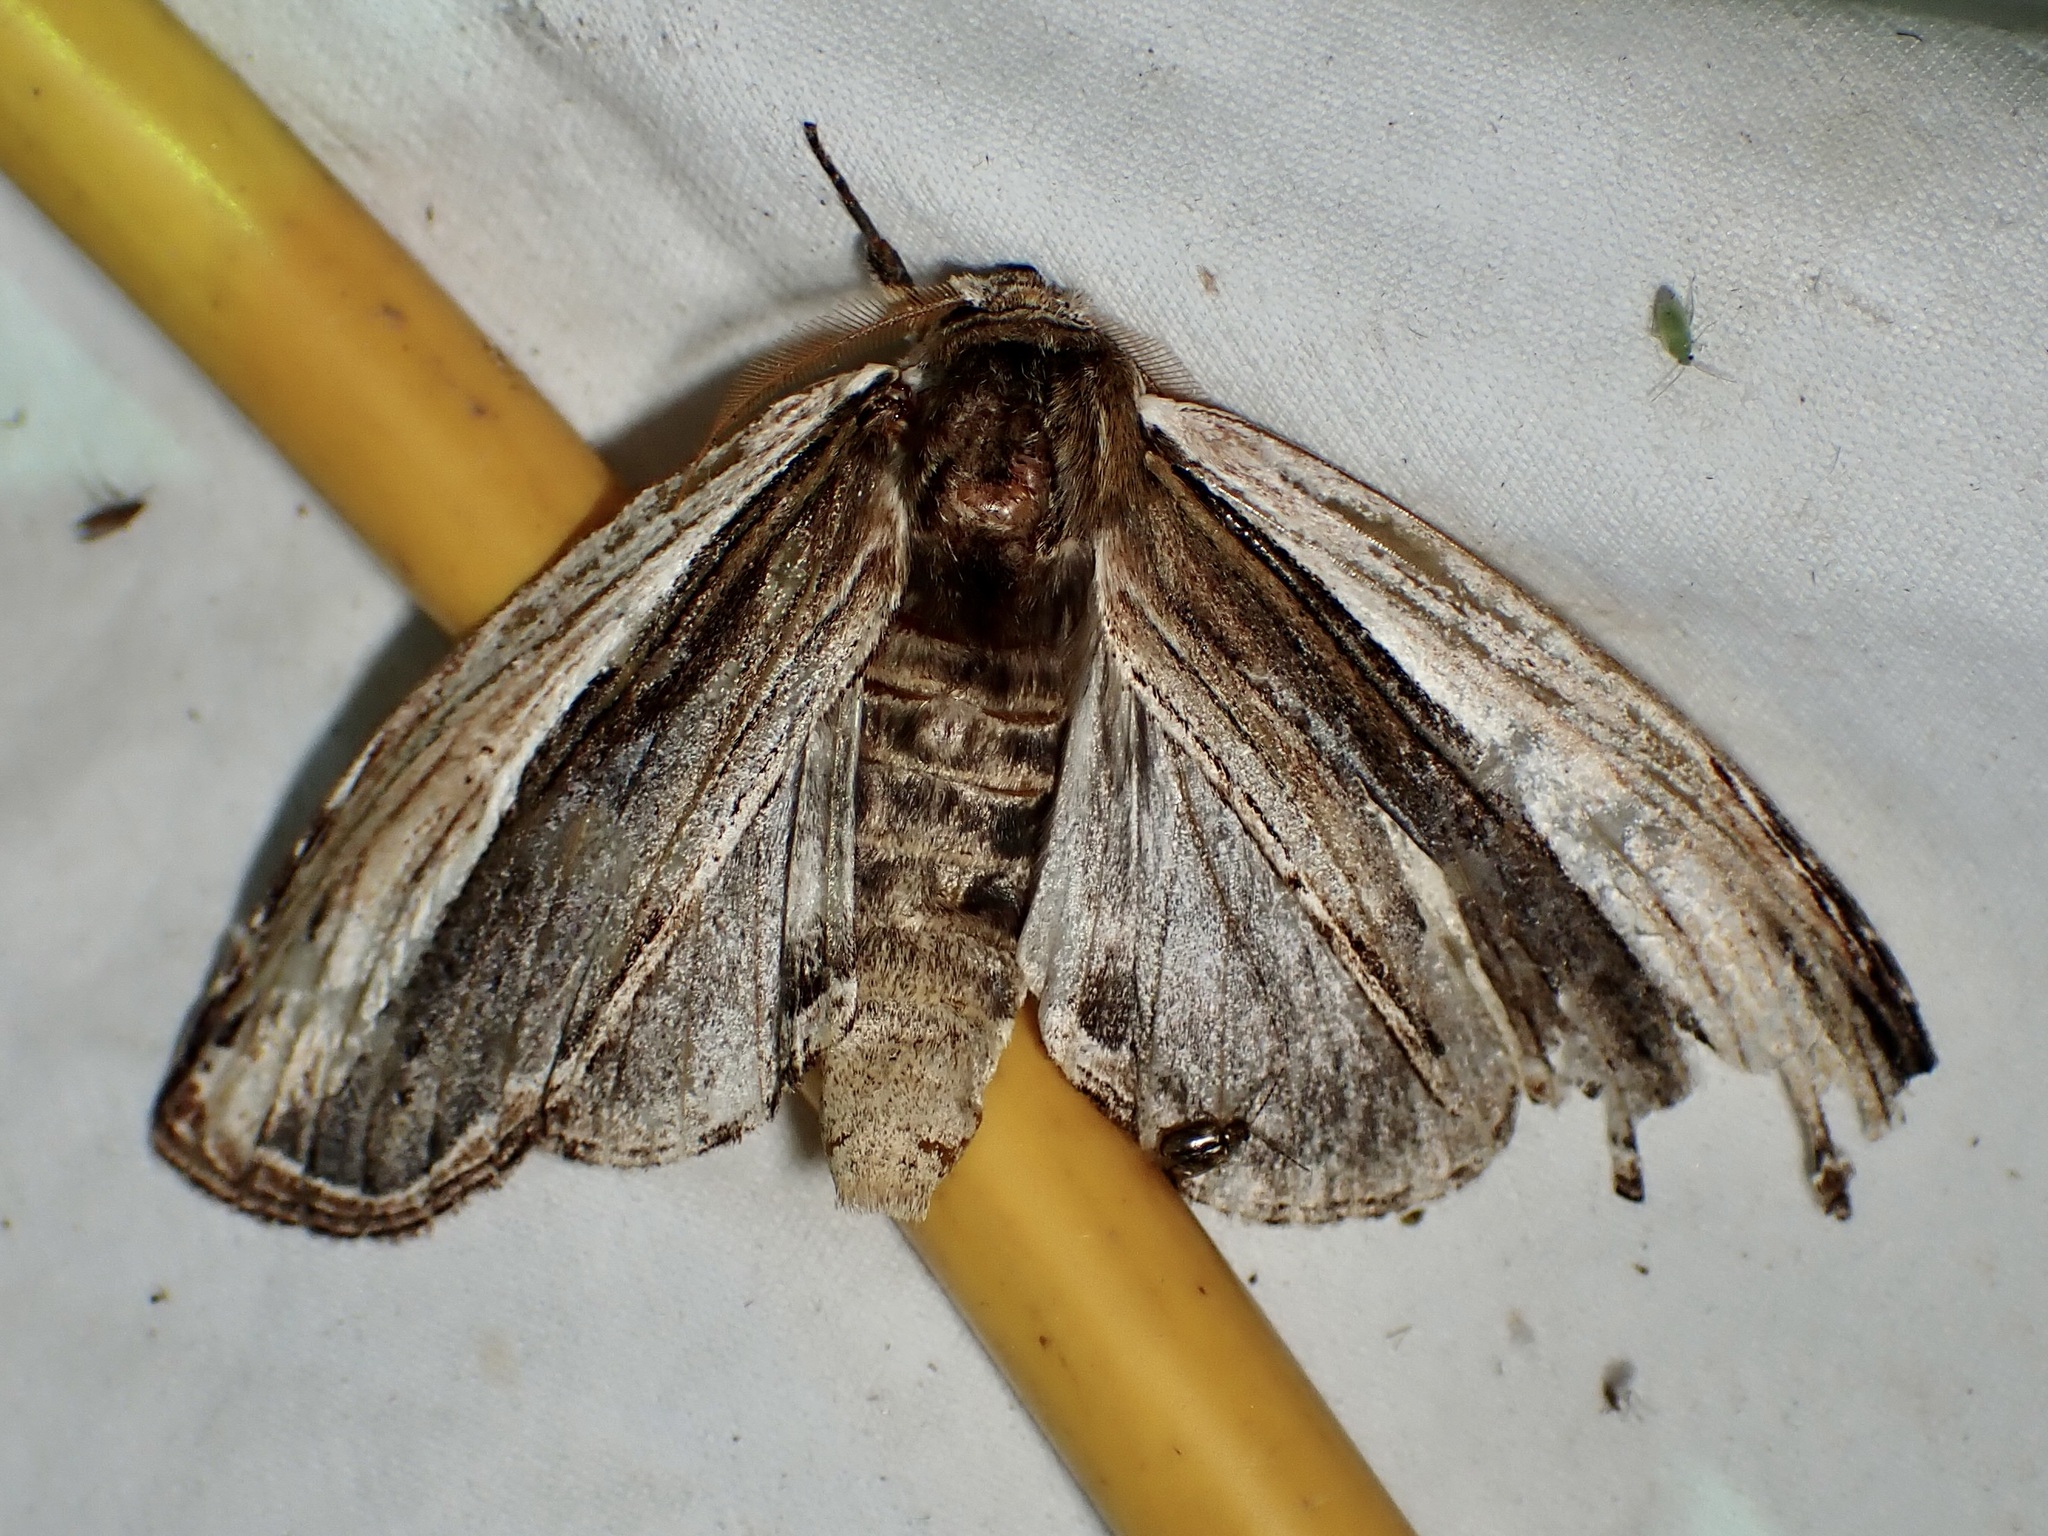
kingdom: Animalia
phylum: Arthropoda
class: Insecta
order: Lepidoptera
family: Notodontidae
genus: Truncaptera
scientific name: Truncaptera inopinata
